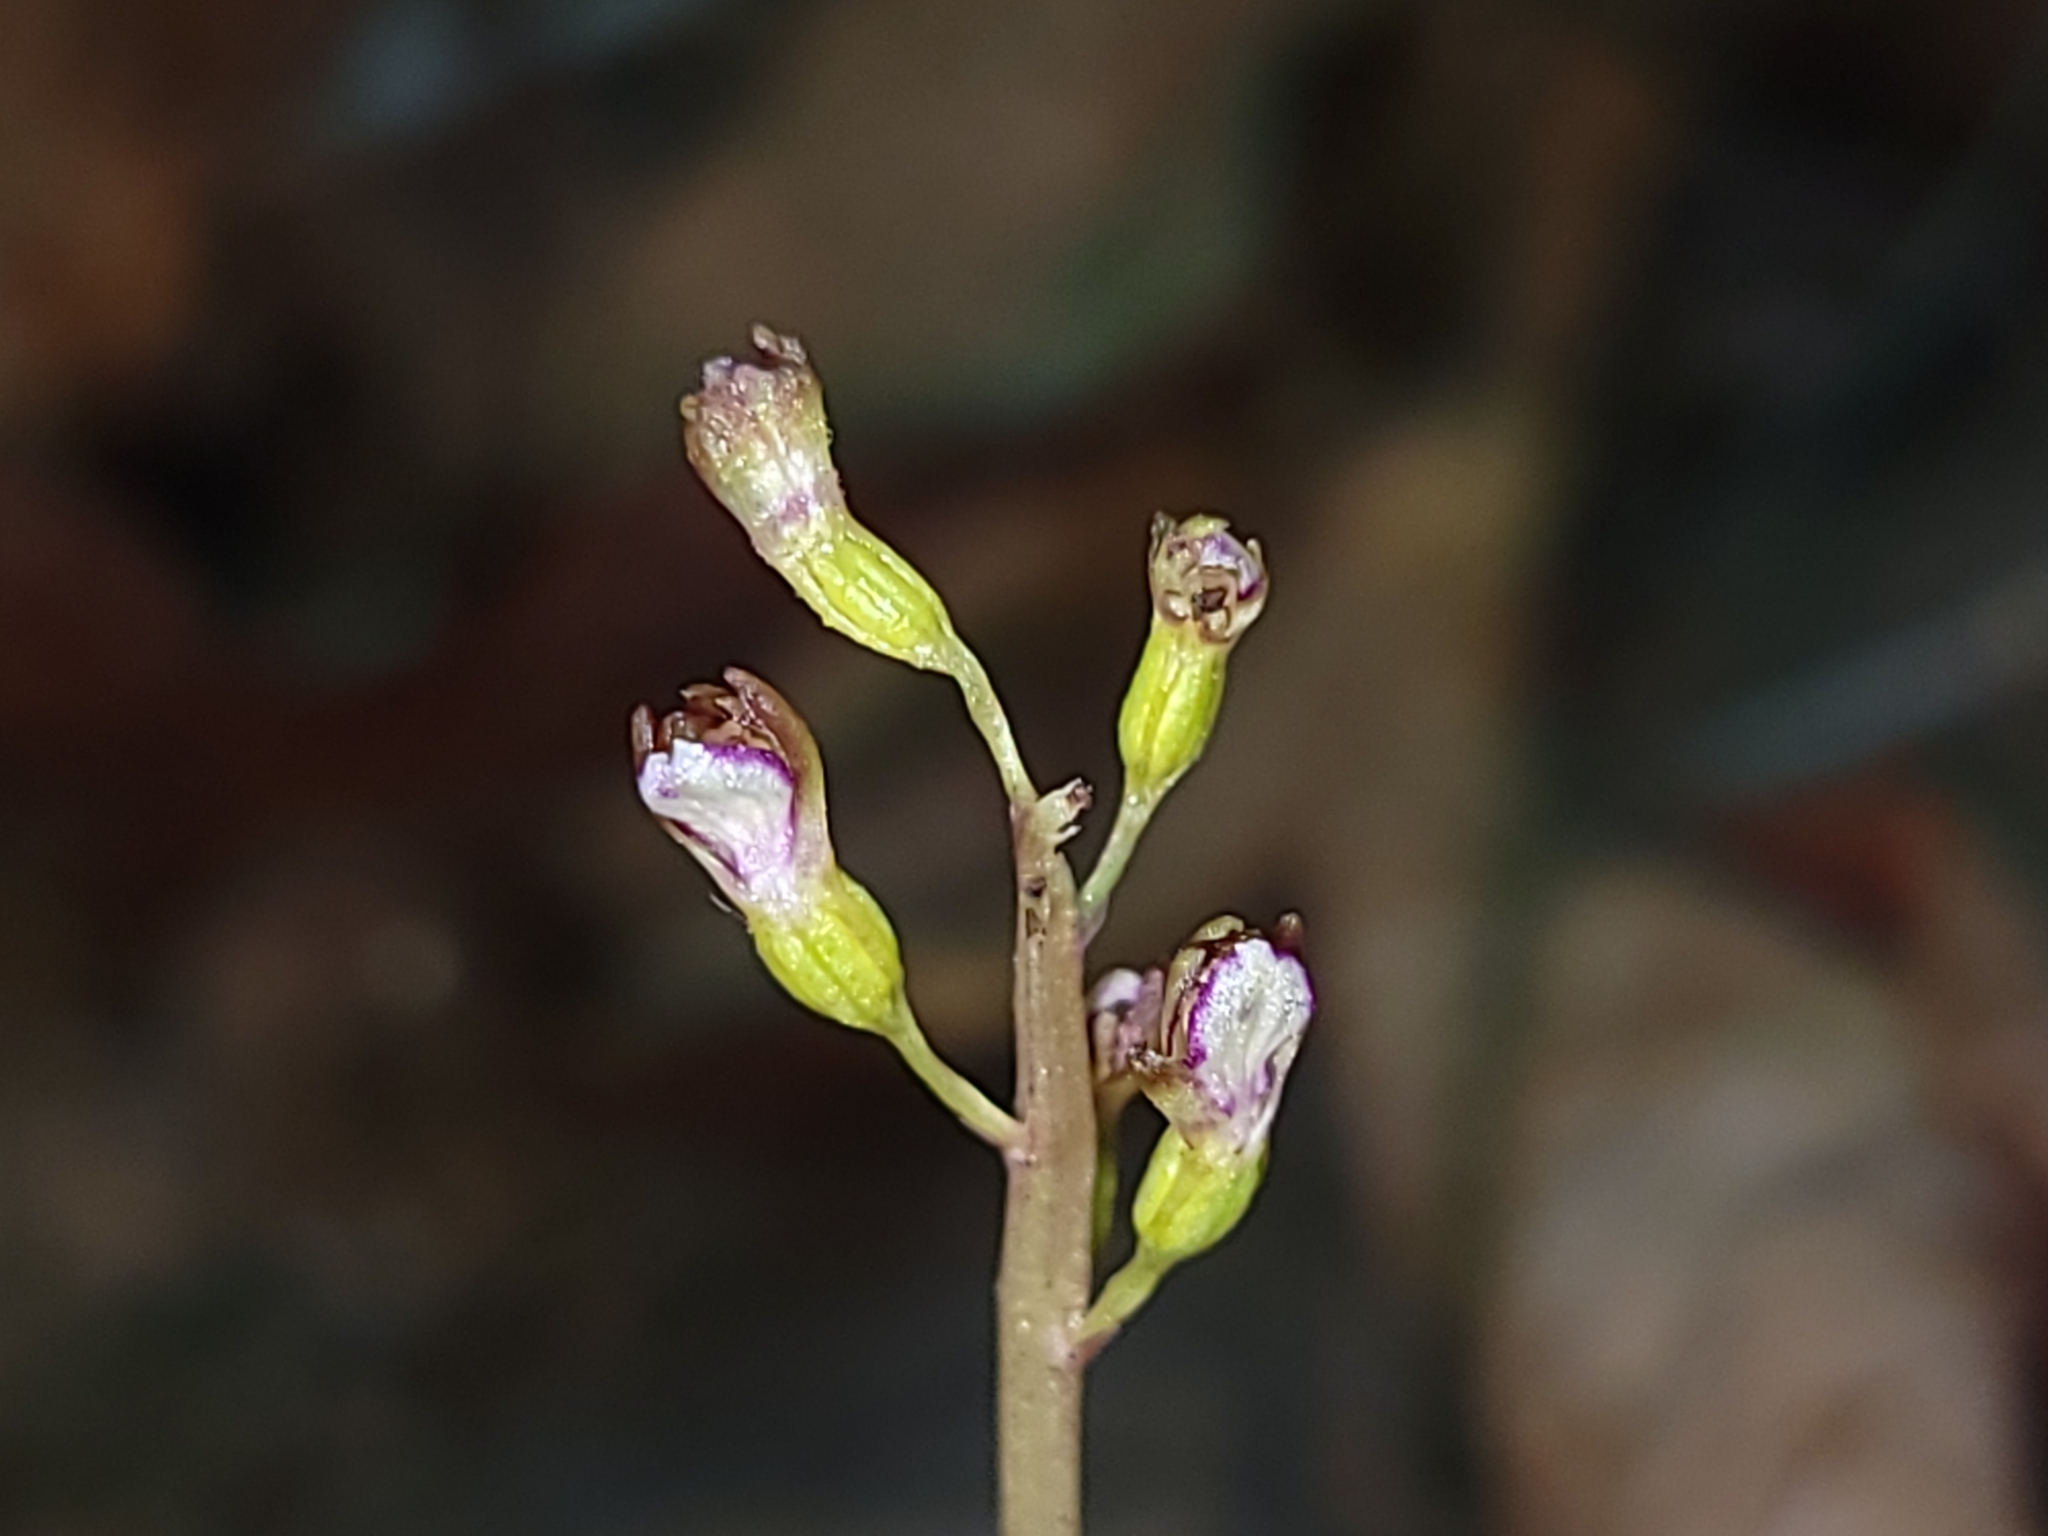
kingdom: Plantae
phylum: Tracheophyta
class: Liliopsida
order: Asparagales
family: Orchidaceae
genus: Corallorhiza
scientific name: Corallorhiza odontorhiza
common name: Autumn coralroot
